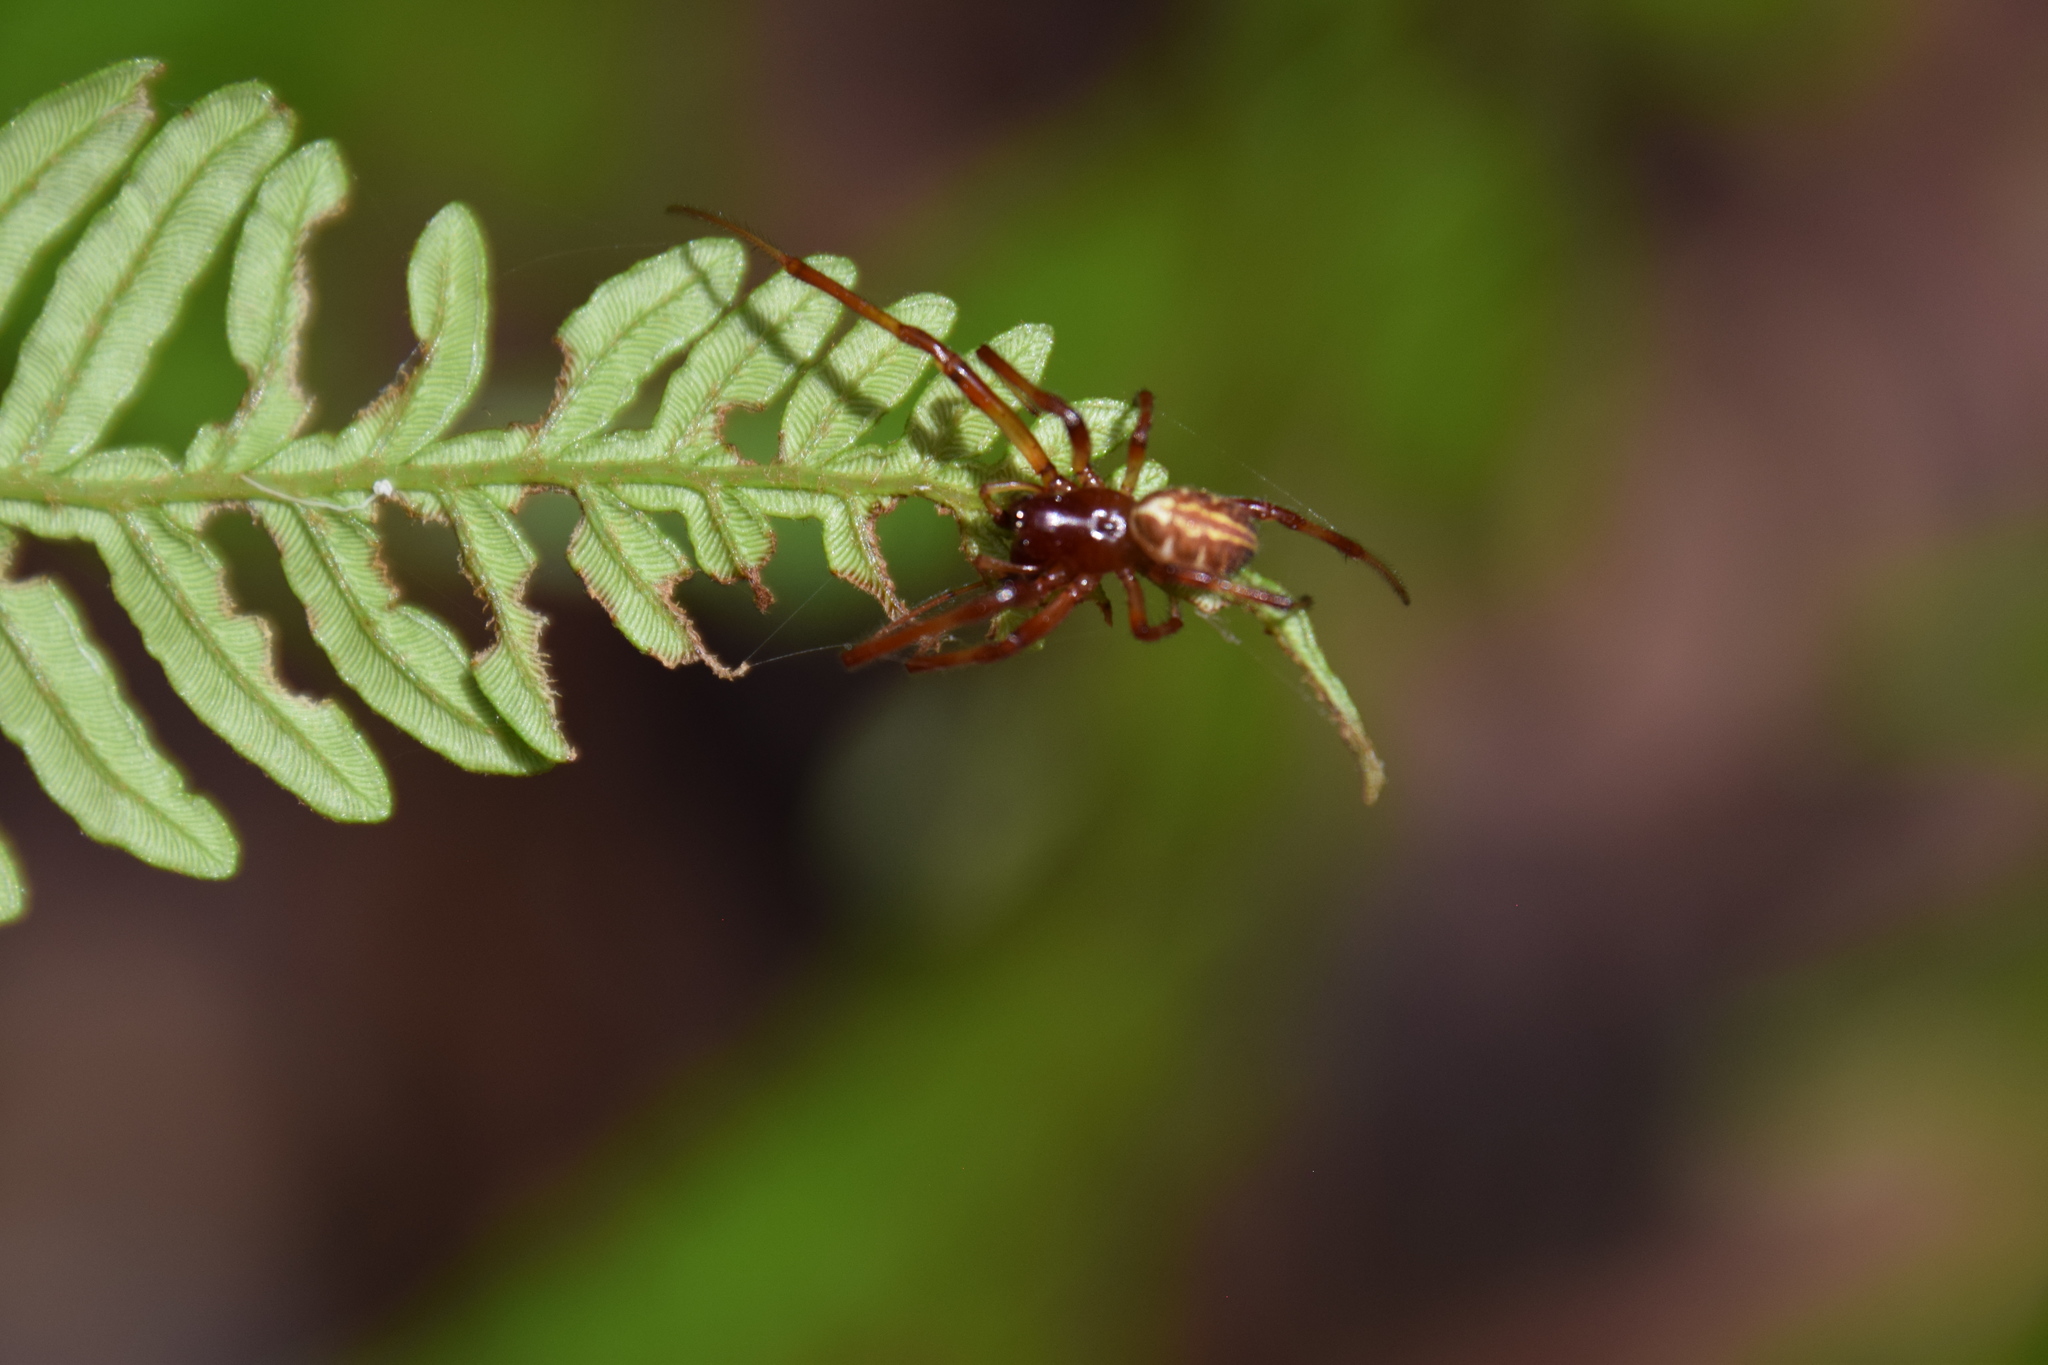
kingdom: Animalia
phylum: Arthropoda
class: Arachnida
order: Araneae
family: Araneidae
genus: Phonognatha
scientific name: Phonognatha graeffei
